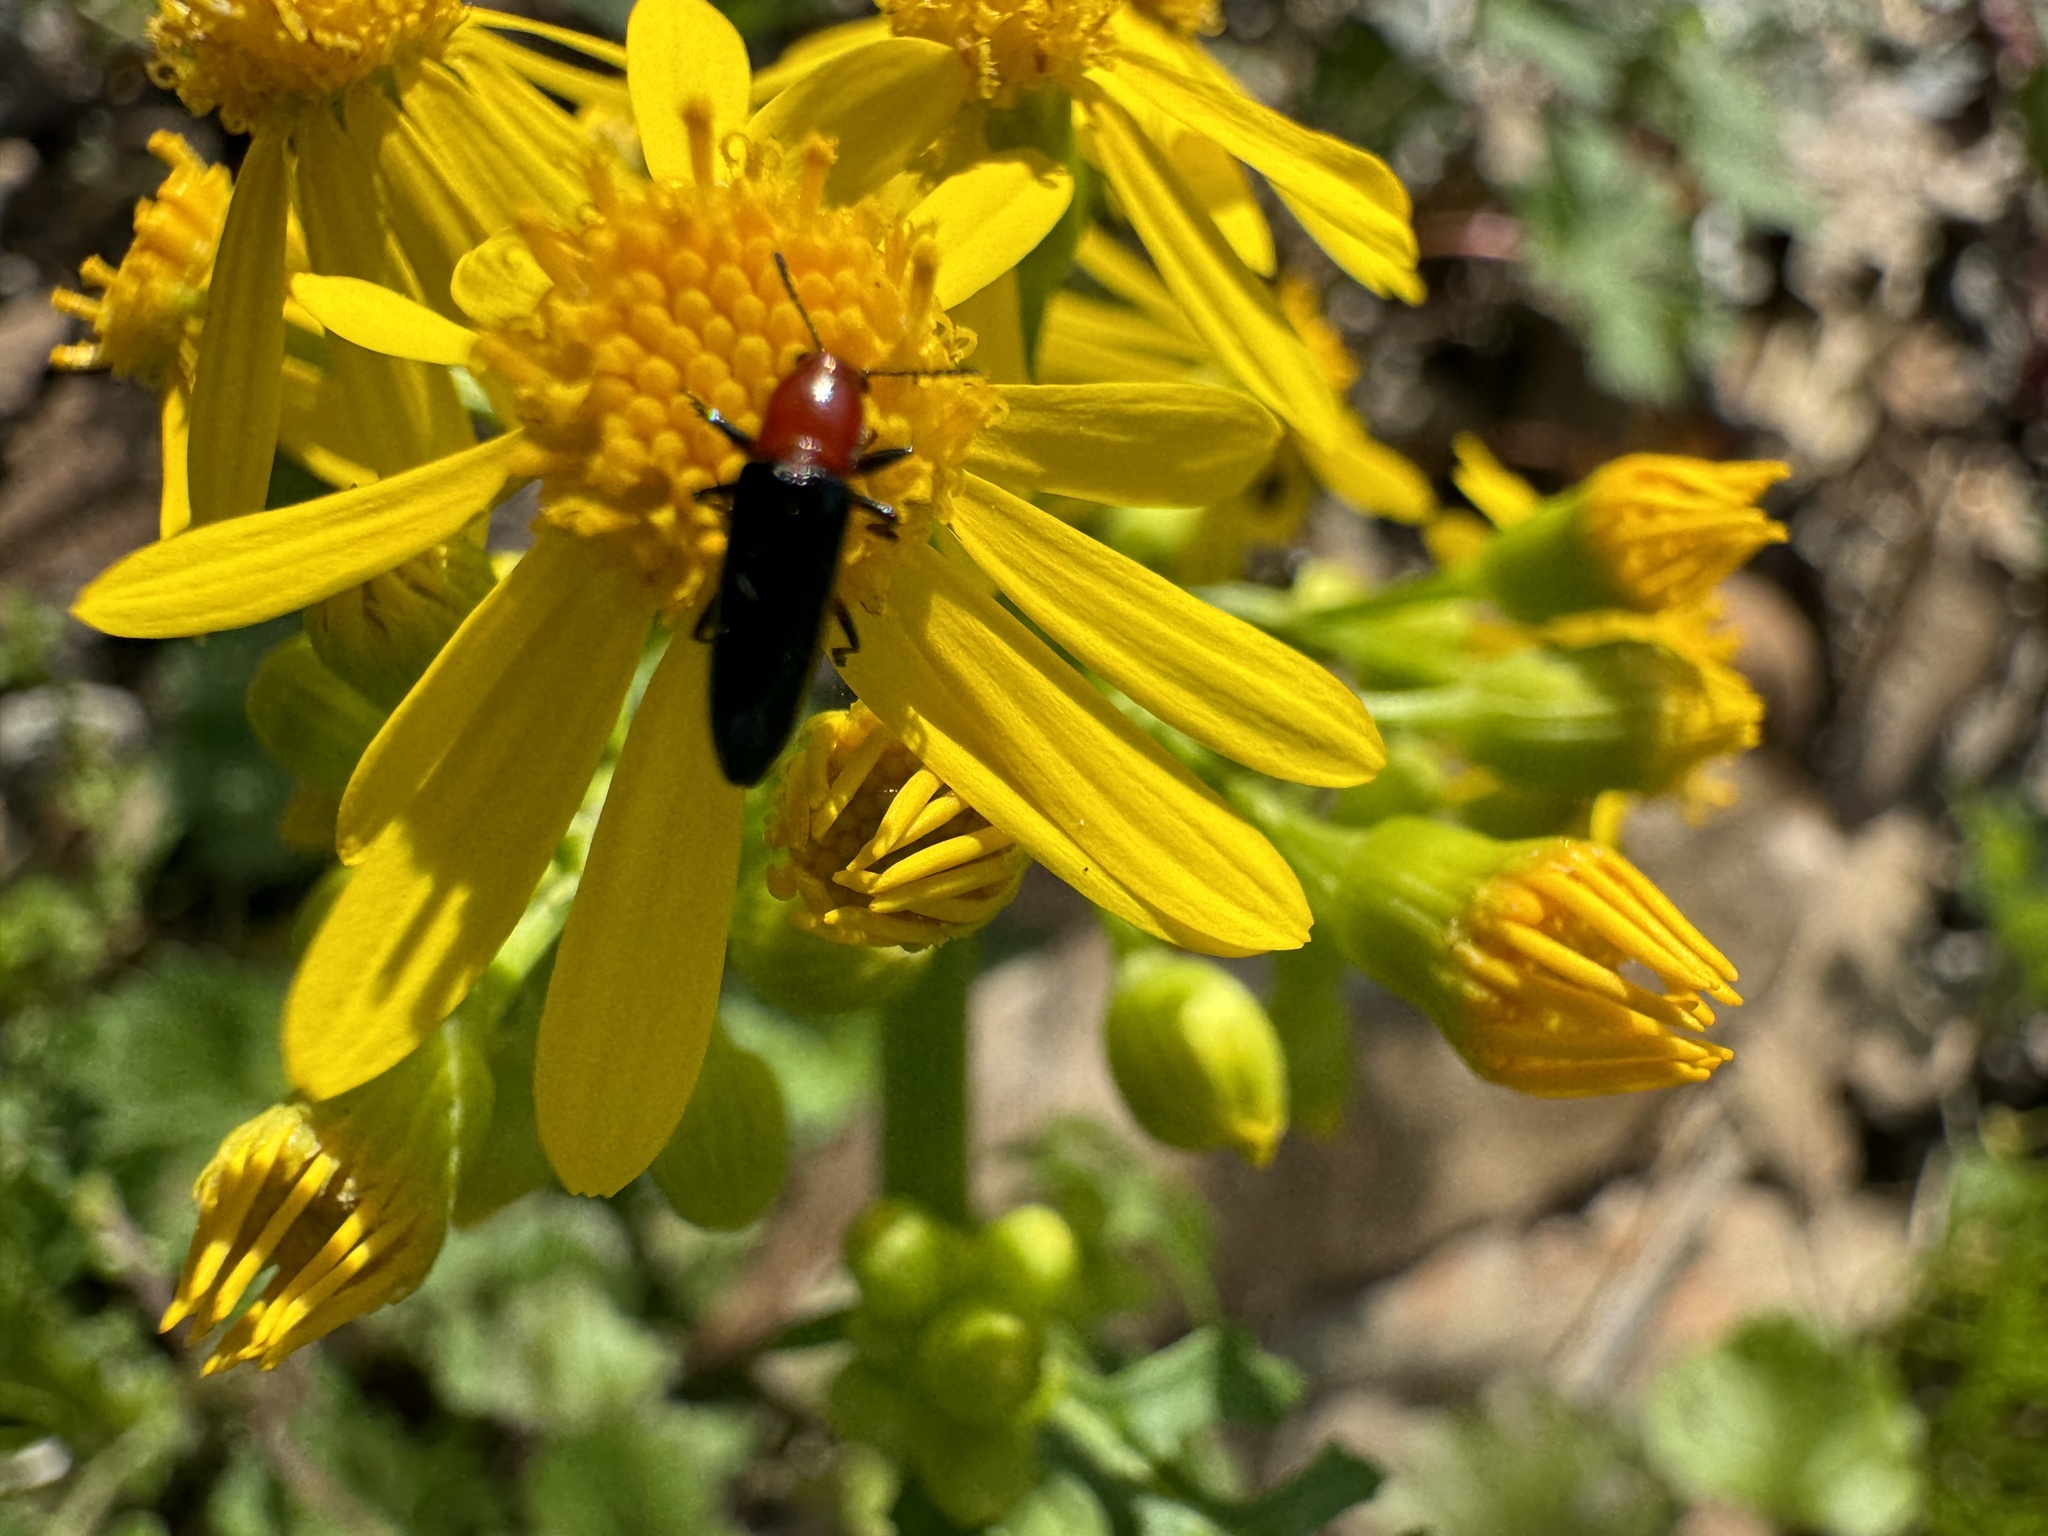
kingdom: Animalia
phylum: Arthropoda
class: Insecta
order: Coleoptera
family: Erotylidae
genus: Languria
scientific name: Languria mozardi
